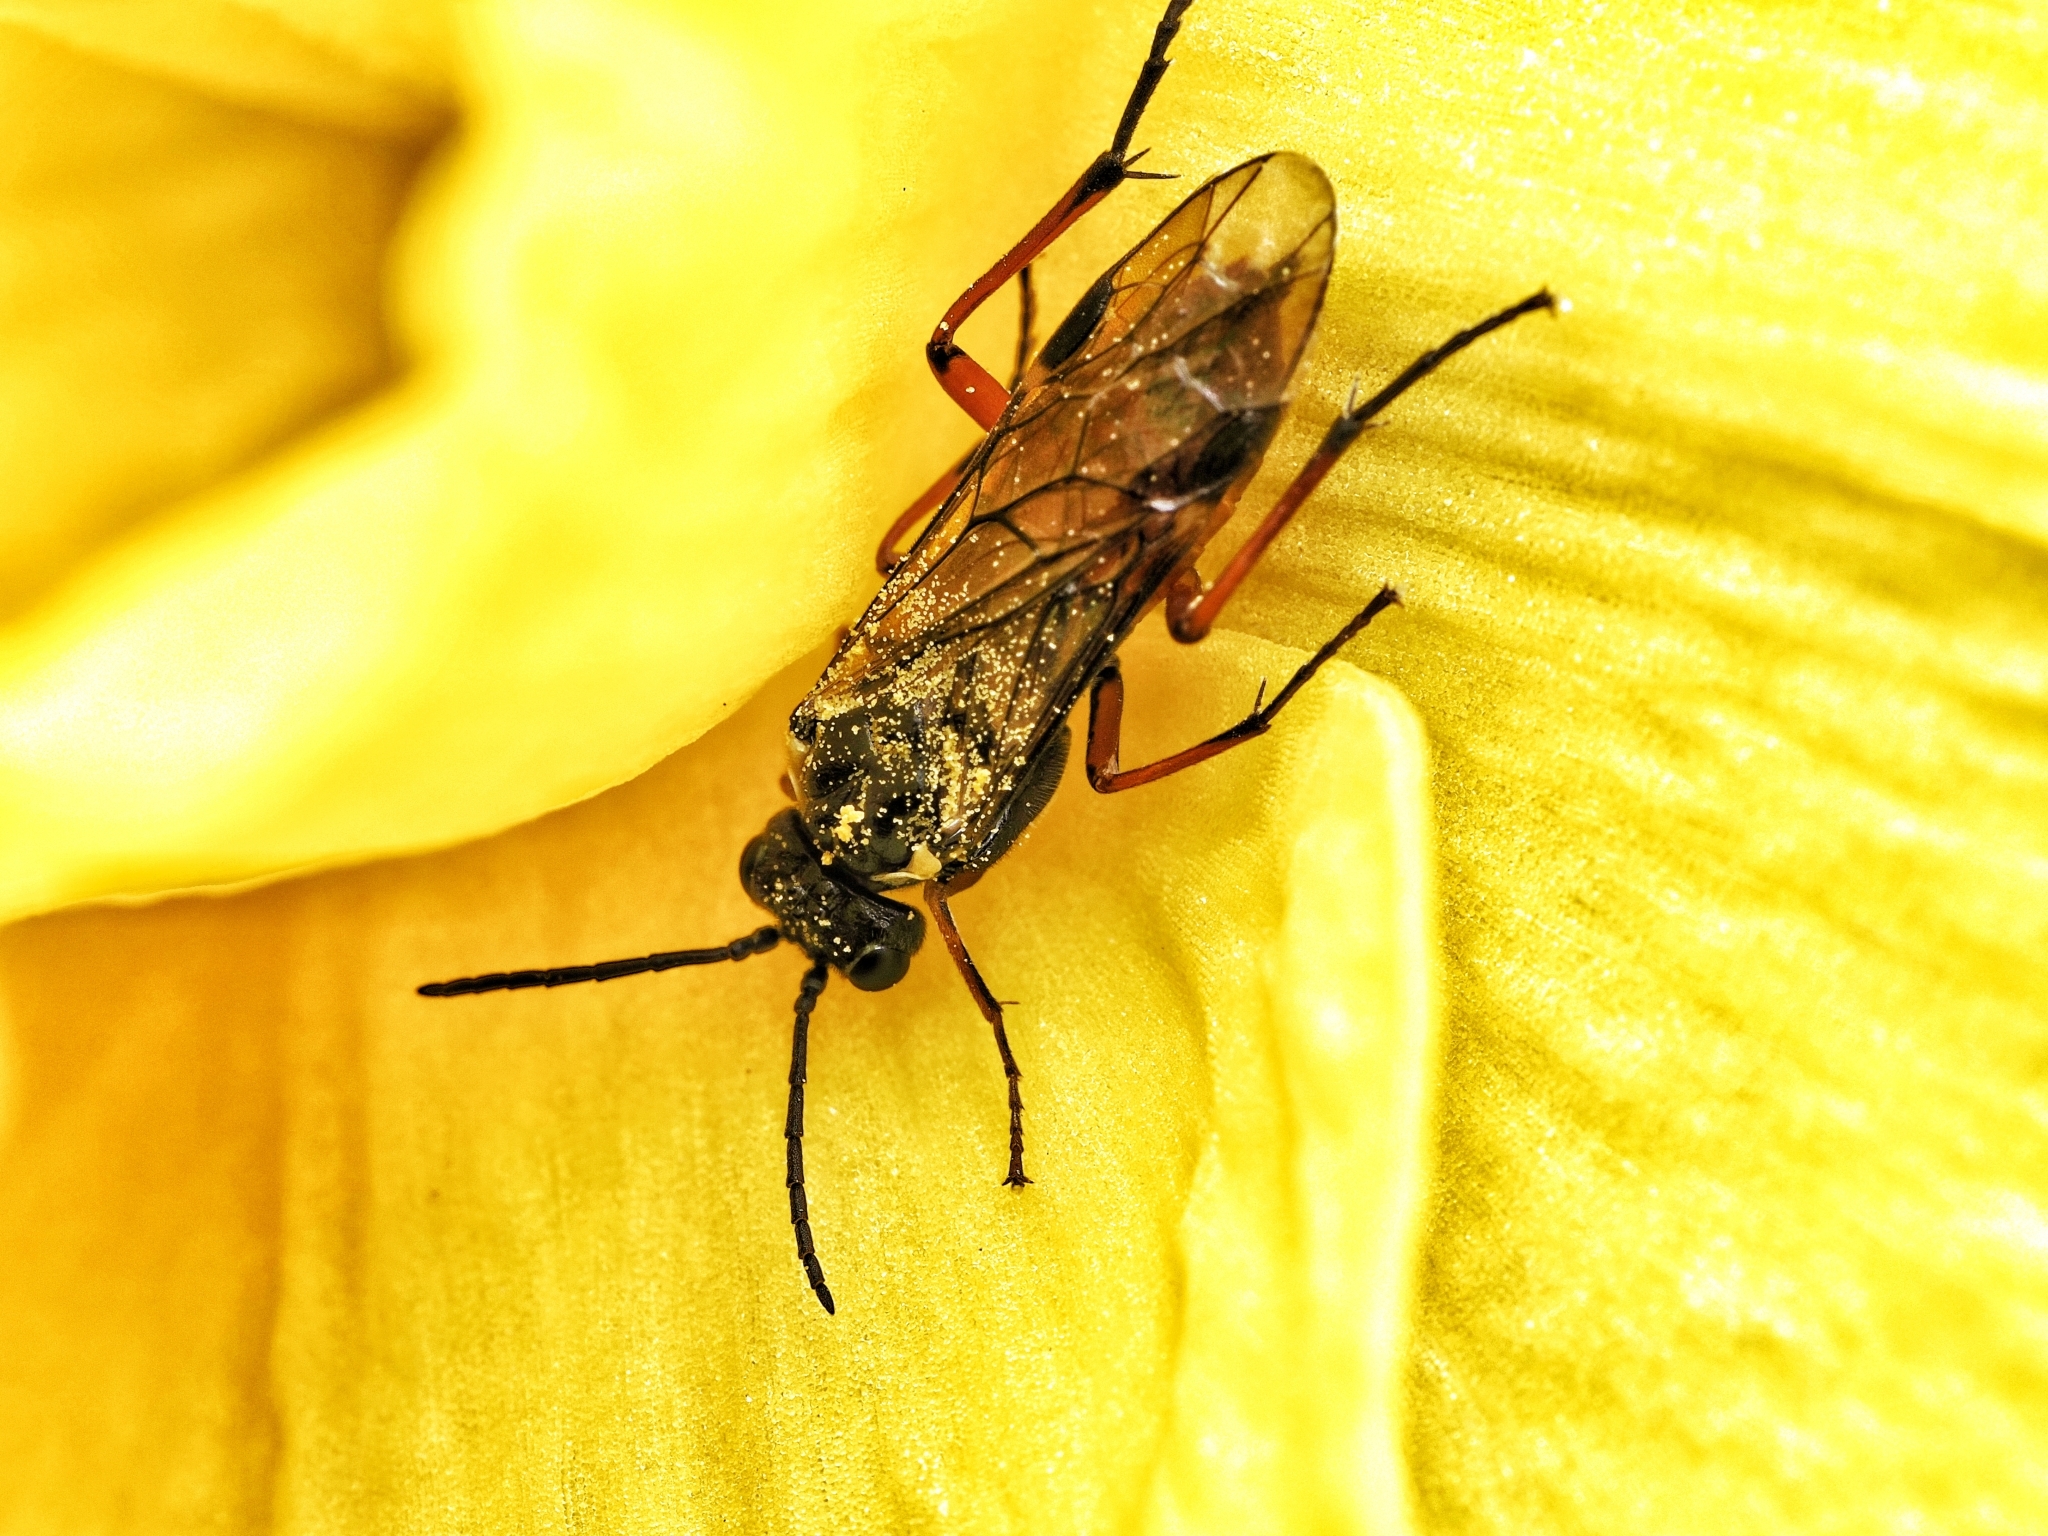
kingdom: Animalia
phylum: Arthropoda
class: Insecta
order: Hymenoptera
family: Tenthredinidae
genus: Aglaostigma
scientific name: Aglaostigma aucupariae
